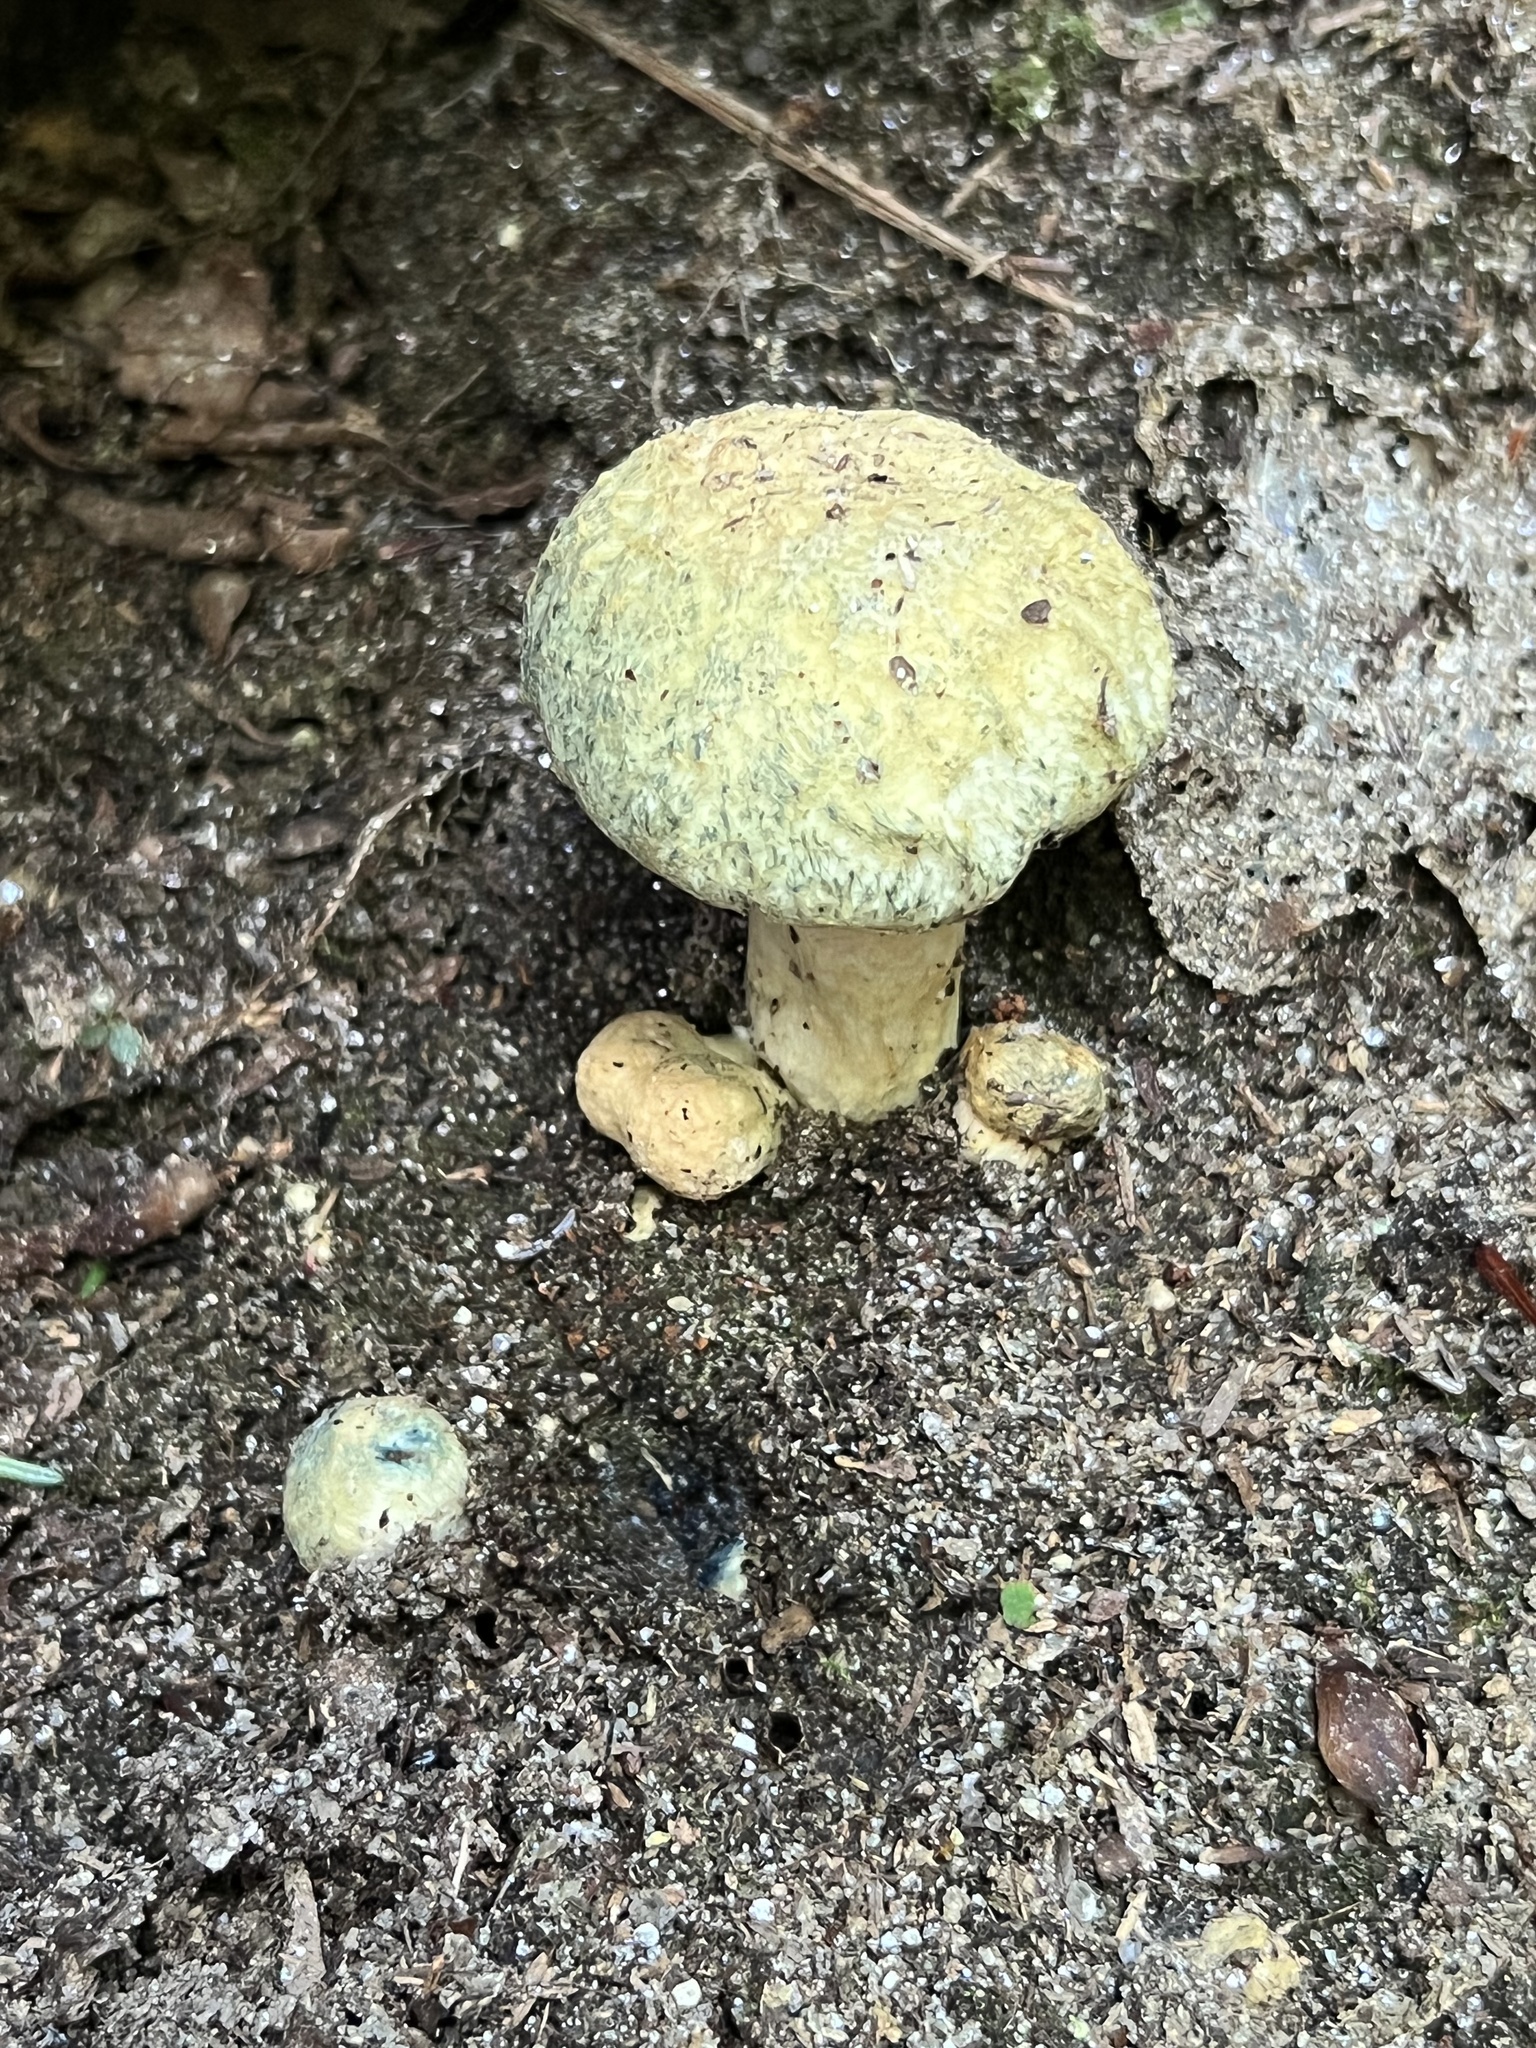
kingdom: Fungi
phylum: Basidiomycota
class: Agaricomycetes
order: Boletales
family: Gyroporaceae
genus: Gyroporus
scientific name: Gyroporus cyanescens
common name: Cornflower bolete
